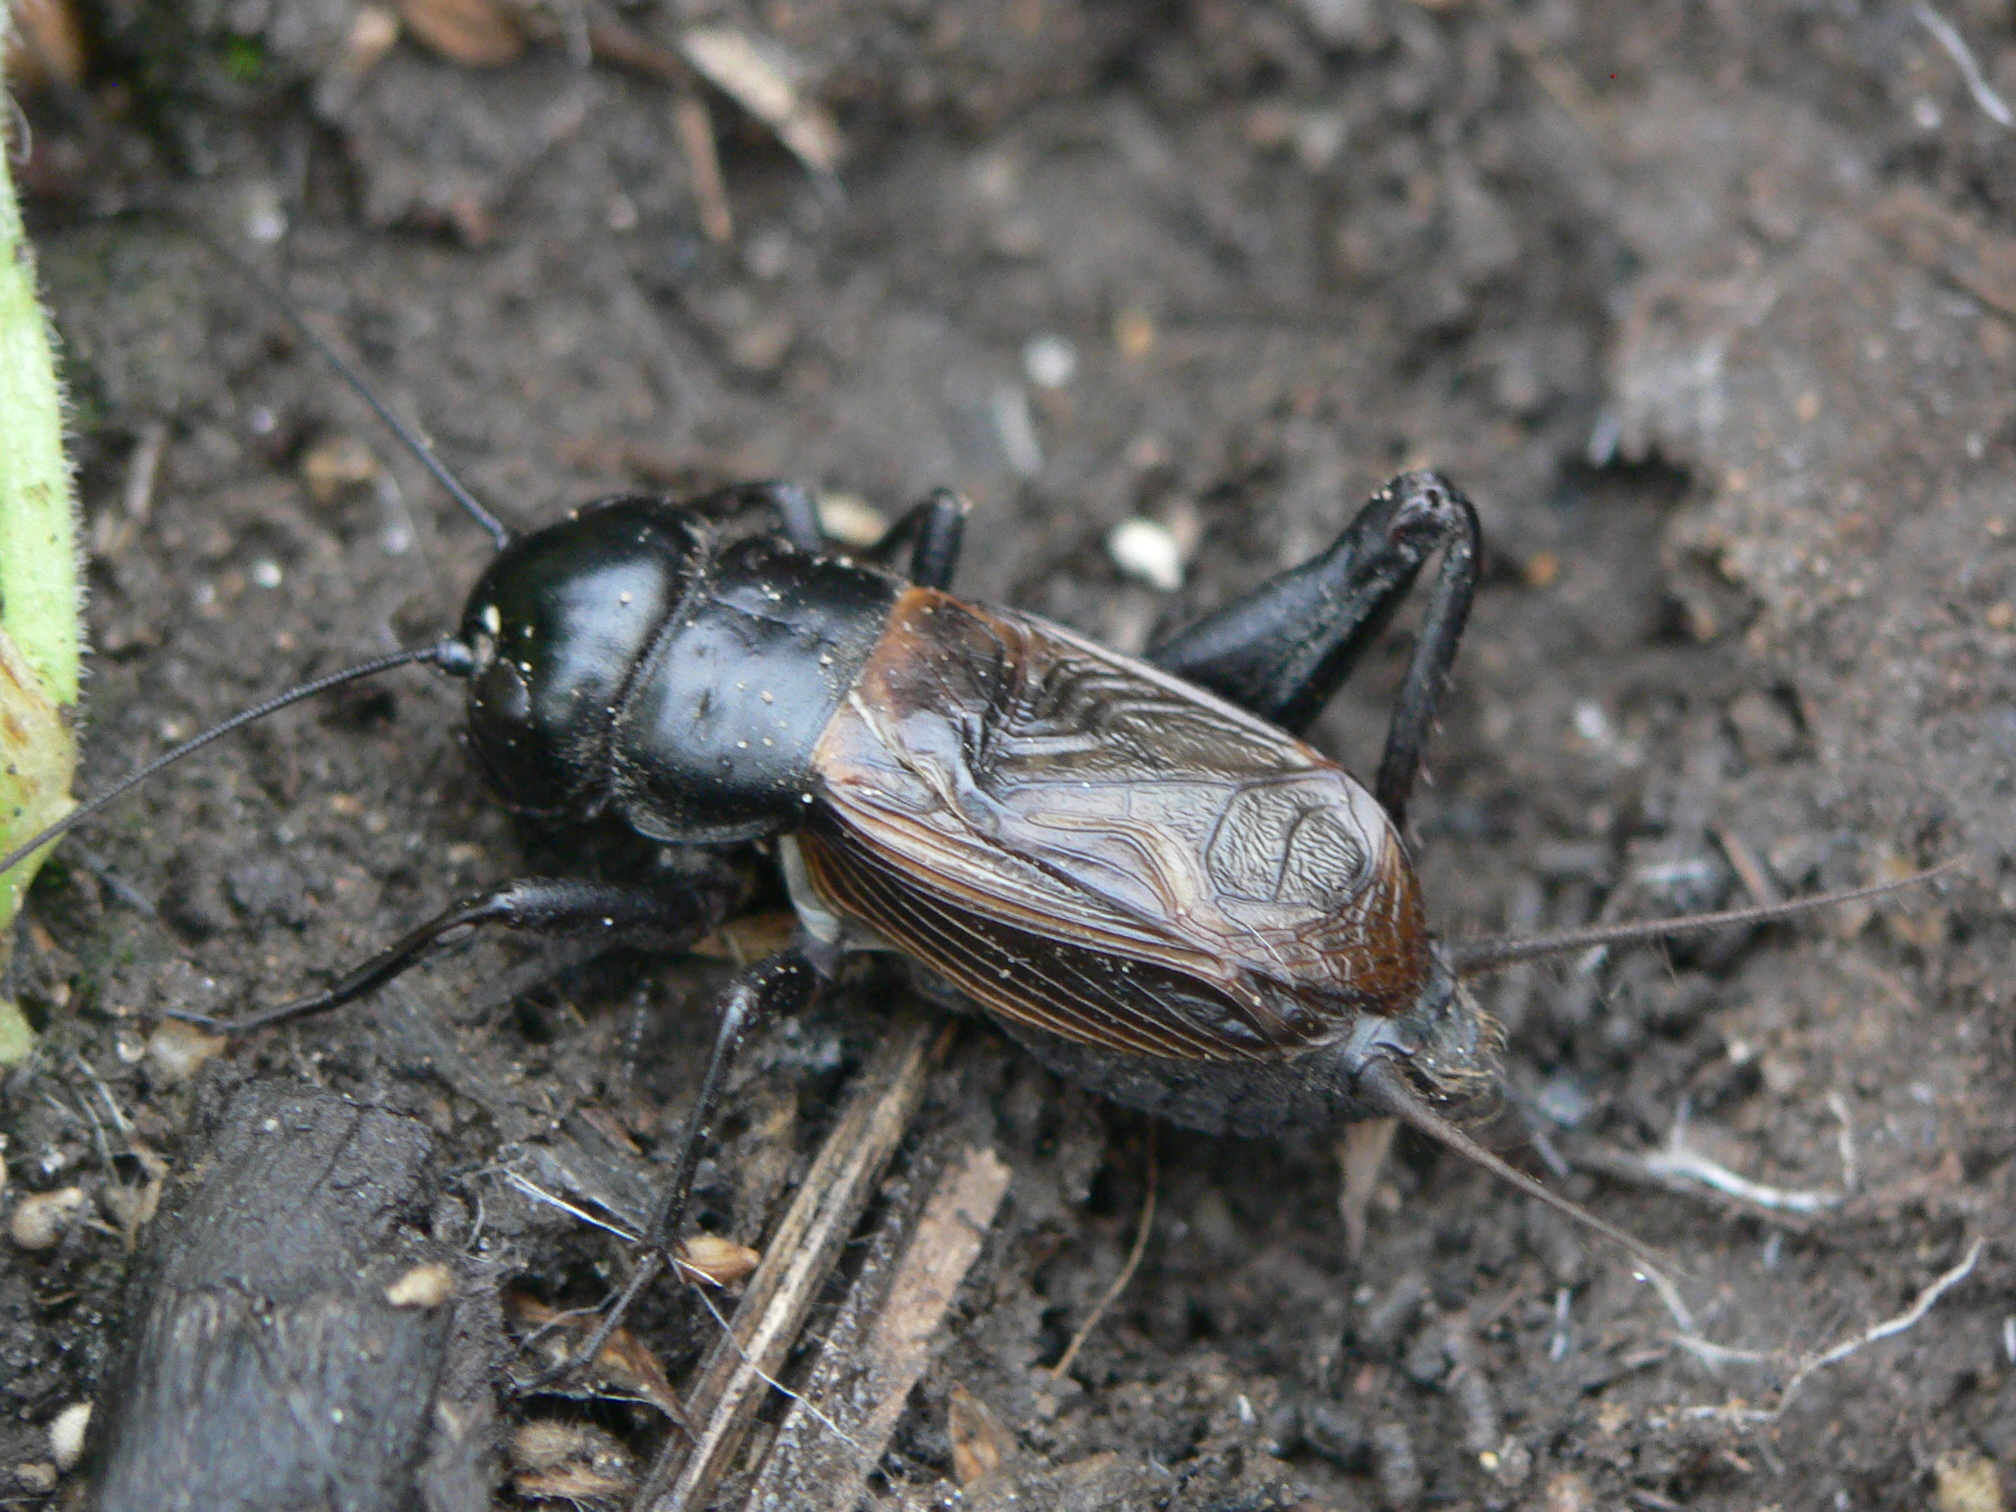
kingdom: Animalia
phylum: Arthropoda
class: Insecta
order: Orthoptera
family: Gryllidae
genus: Gryllus
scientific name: Gryllus pennsylvanicus
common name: Fall field cricket
